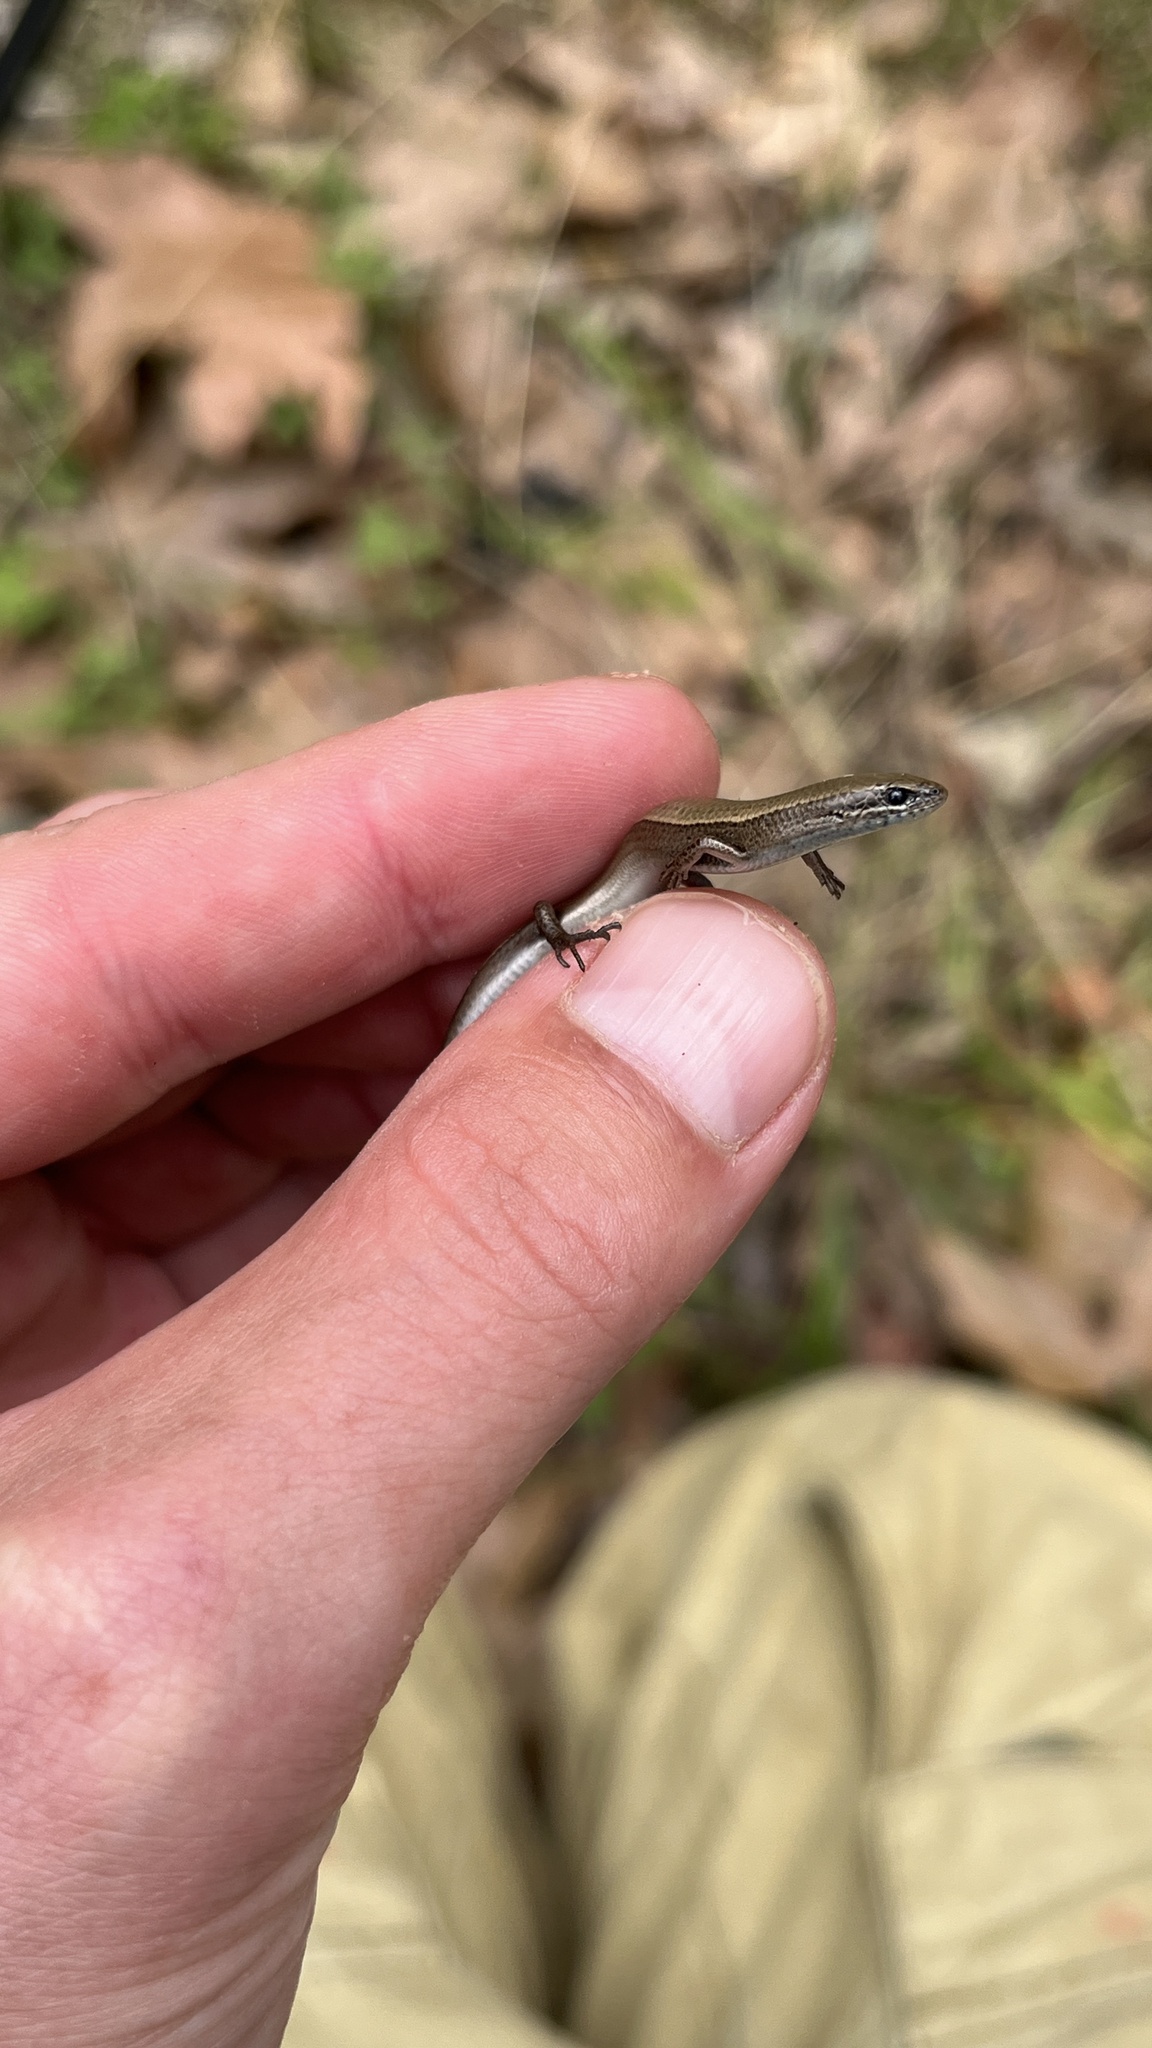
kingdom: Animalia
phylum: Chordata
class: Squamata
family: Scincidae
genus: Ablepharus
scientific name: Ablepharus anatolicus
